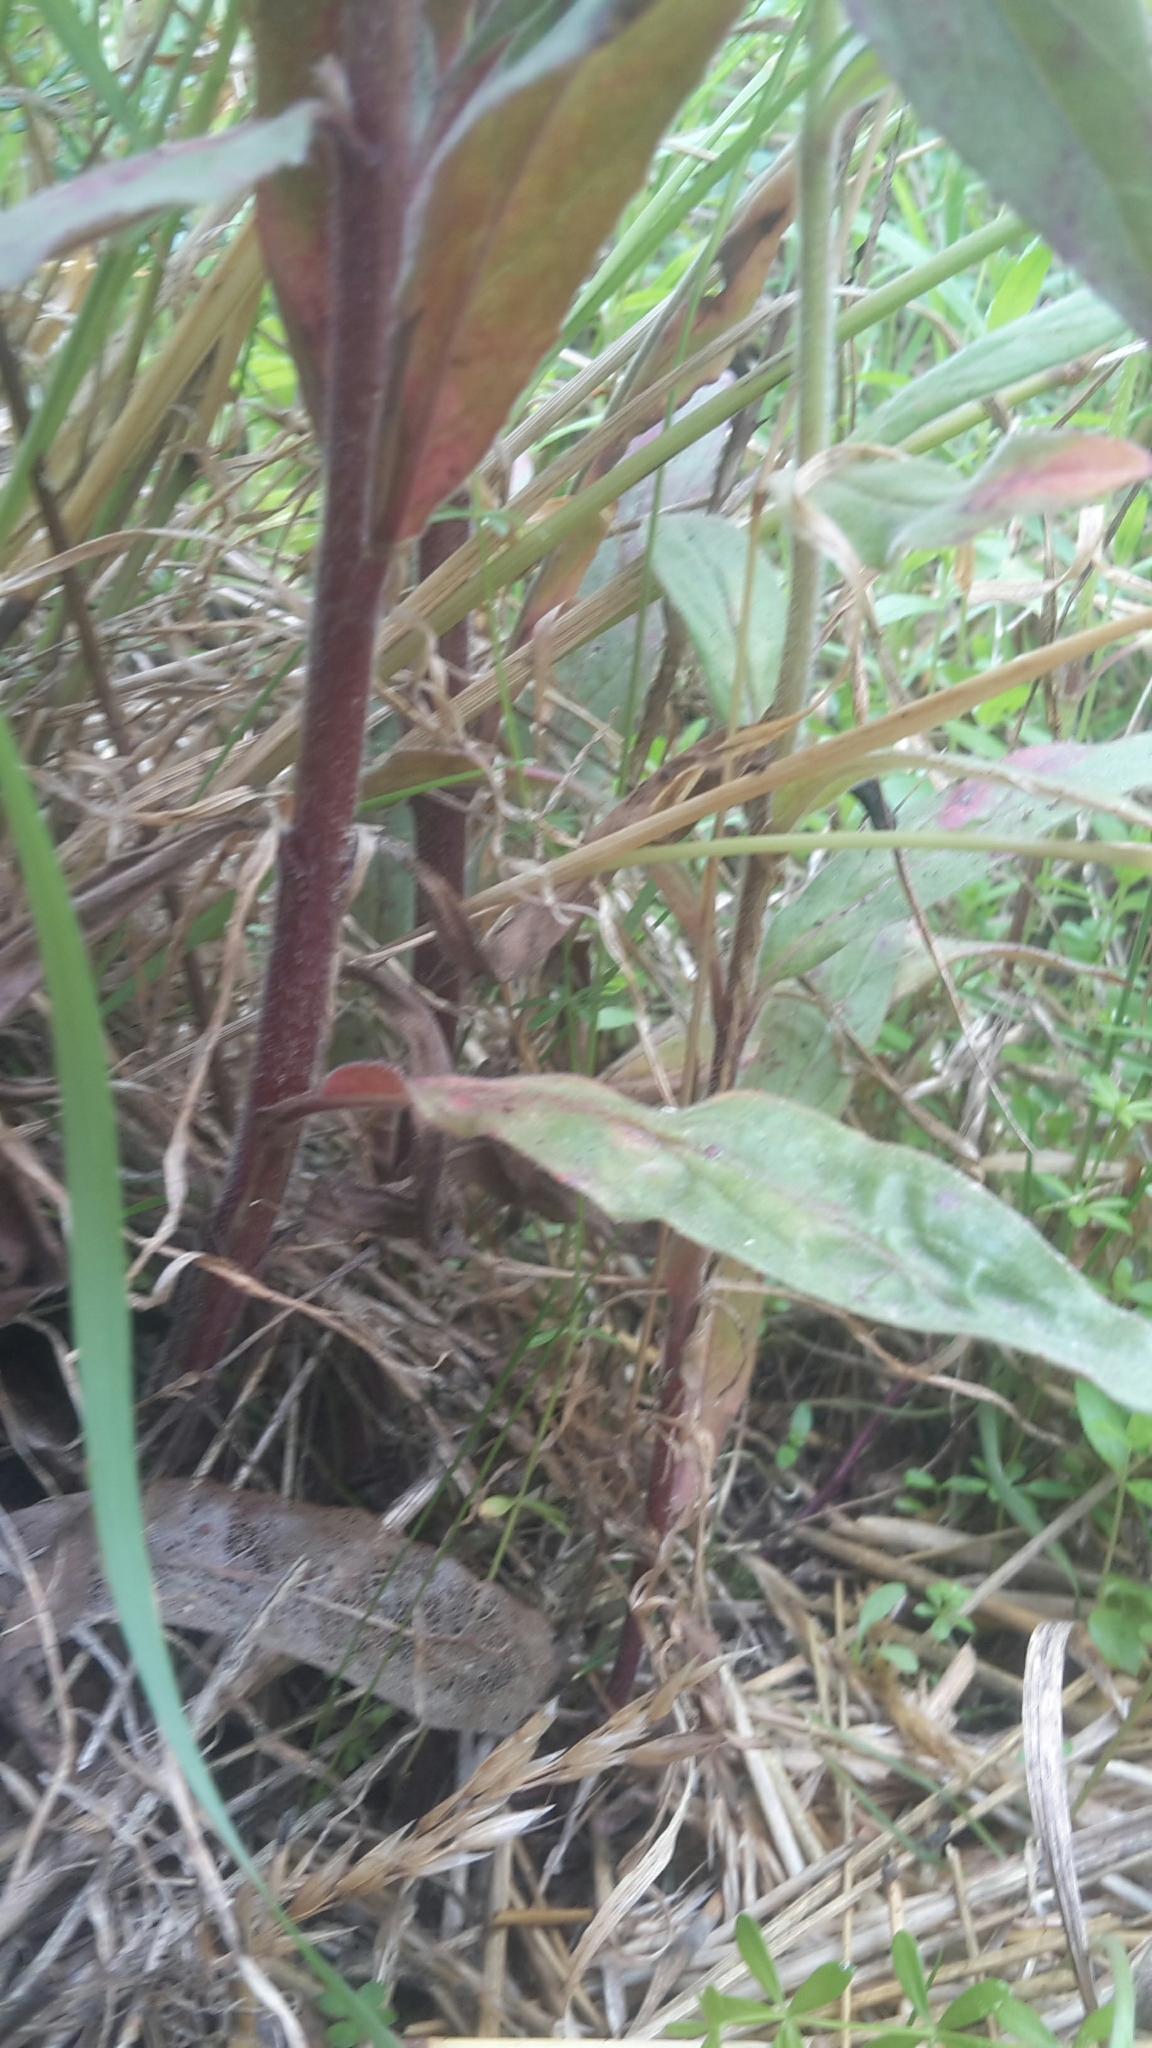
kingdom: Plantae
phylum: Tracheophyta
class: Magnoliopsida
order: Myrtales
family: Onagraceae
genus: Epilobium
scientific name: Epilobium parviflorum
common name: Hoary willowherb
